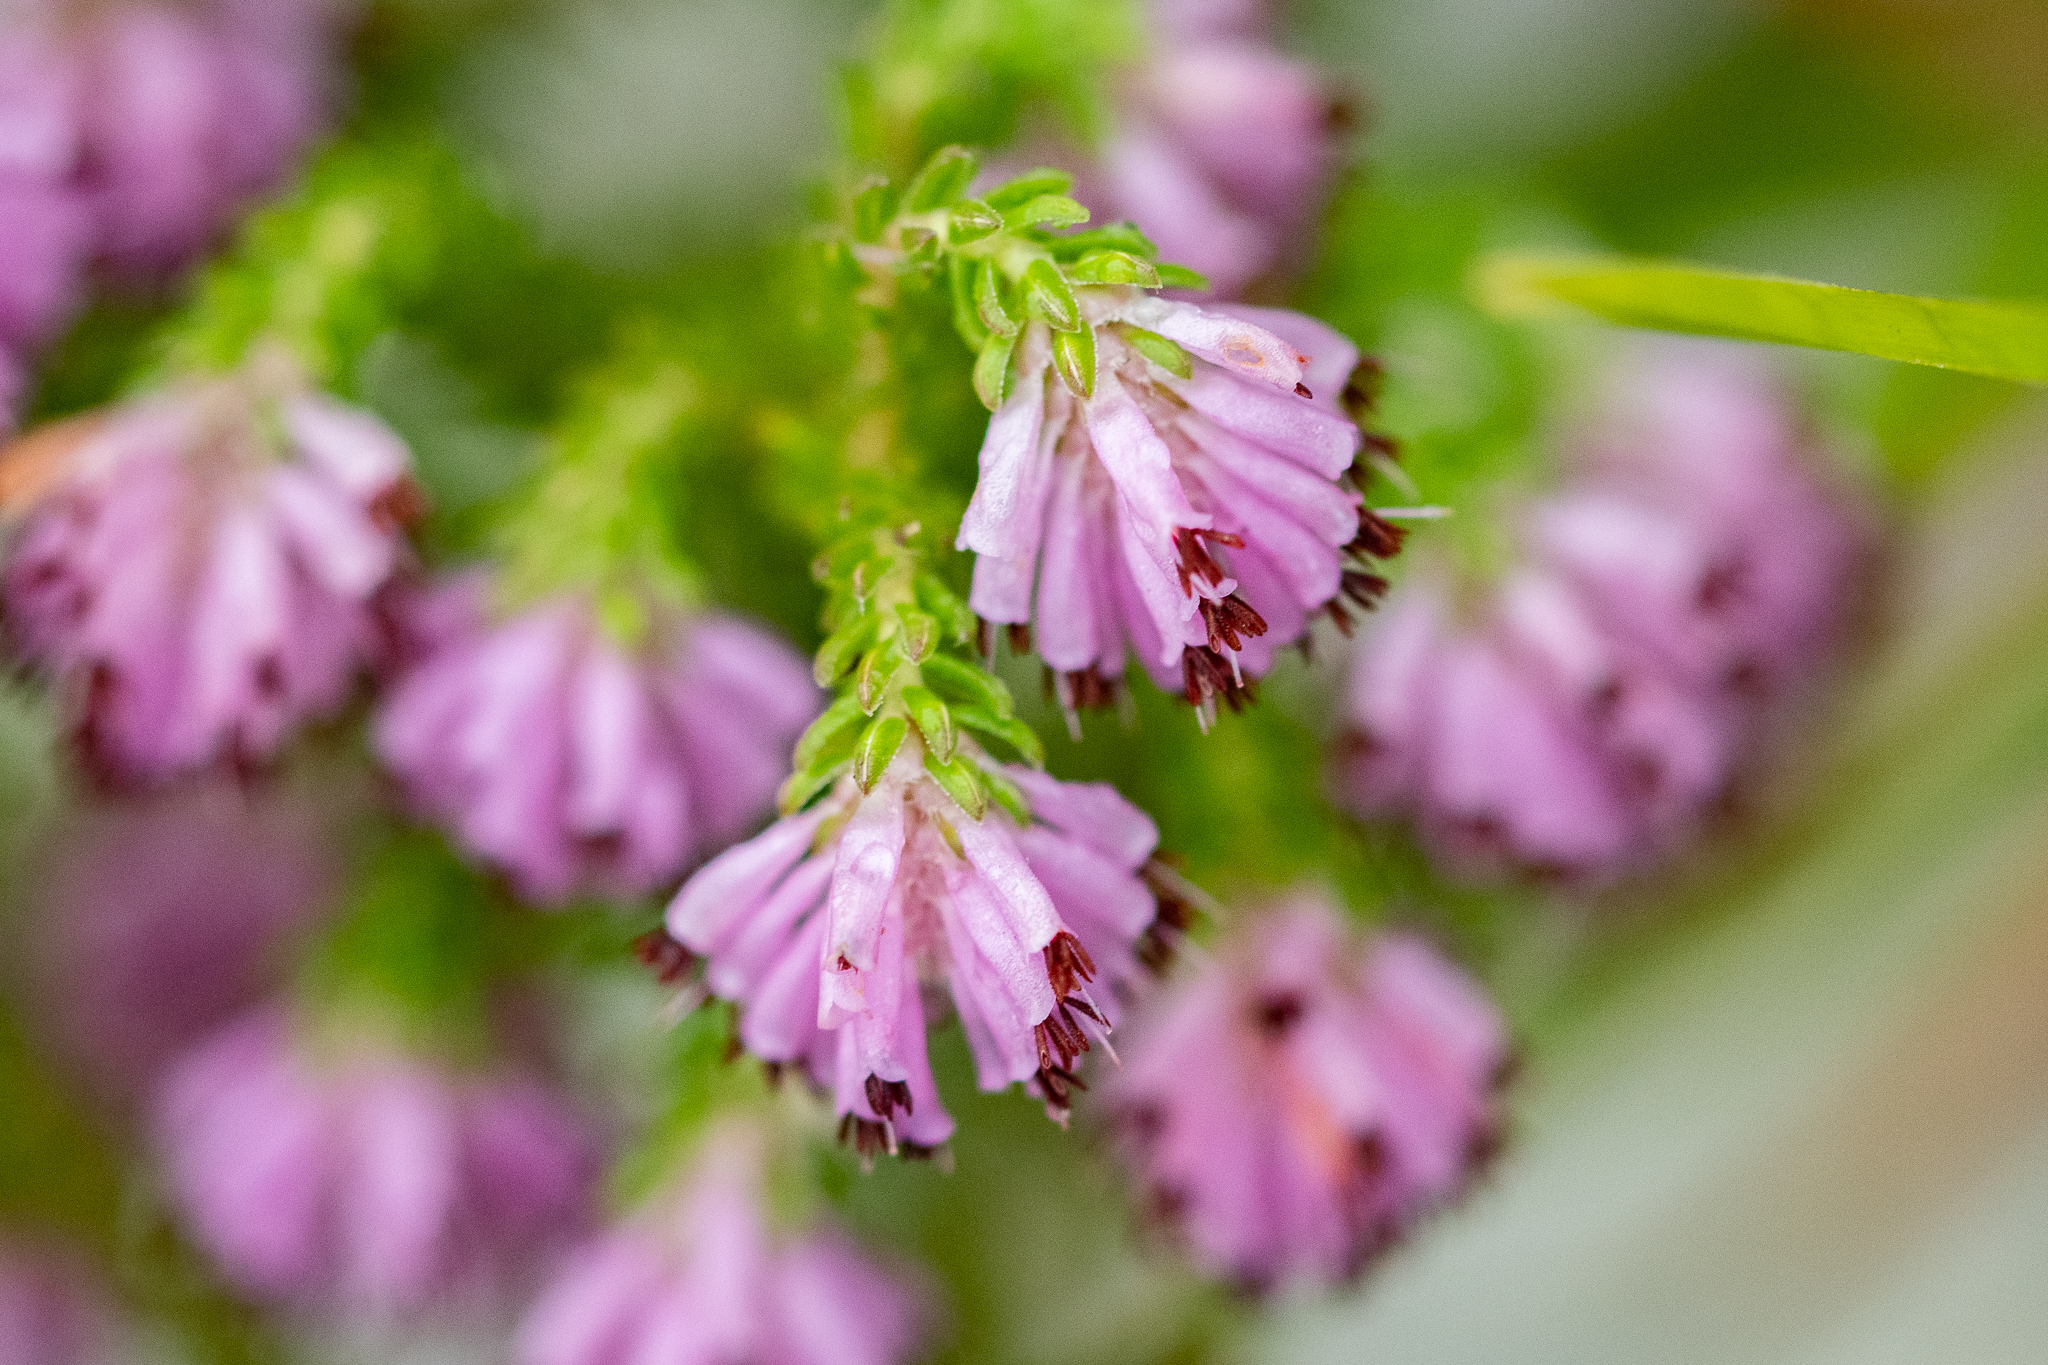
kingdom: Plantae
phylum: Tracheophyta
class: Magnoliopsida
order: Ericales
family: Ericaceae
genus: Erica
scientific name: Erica labialis
